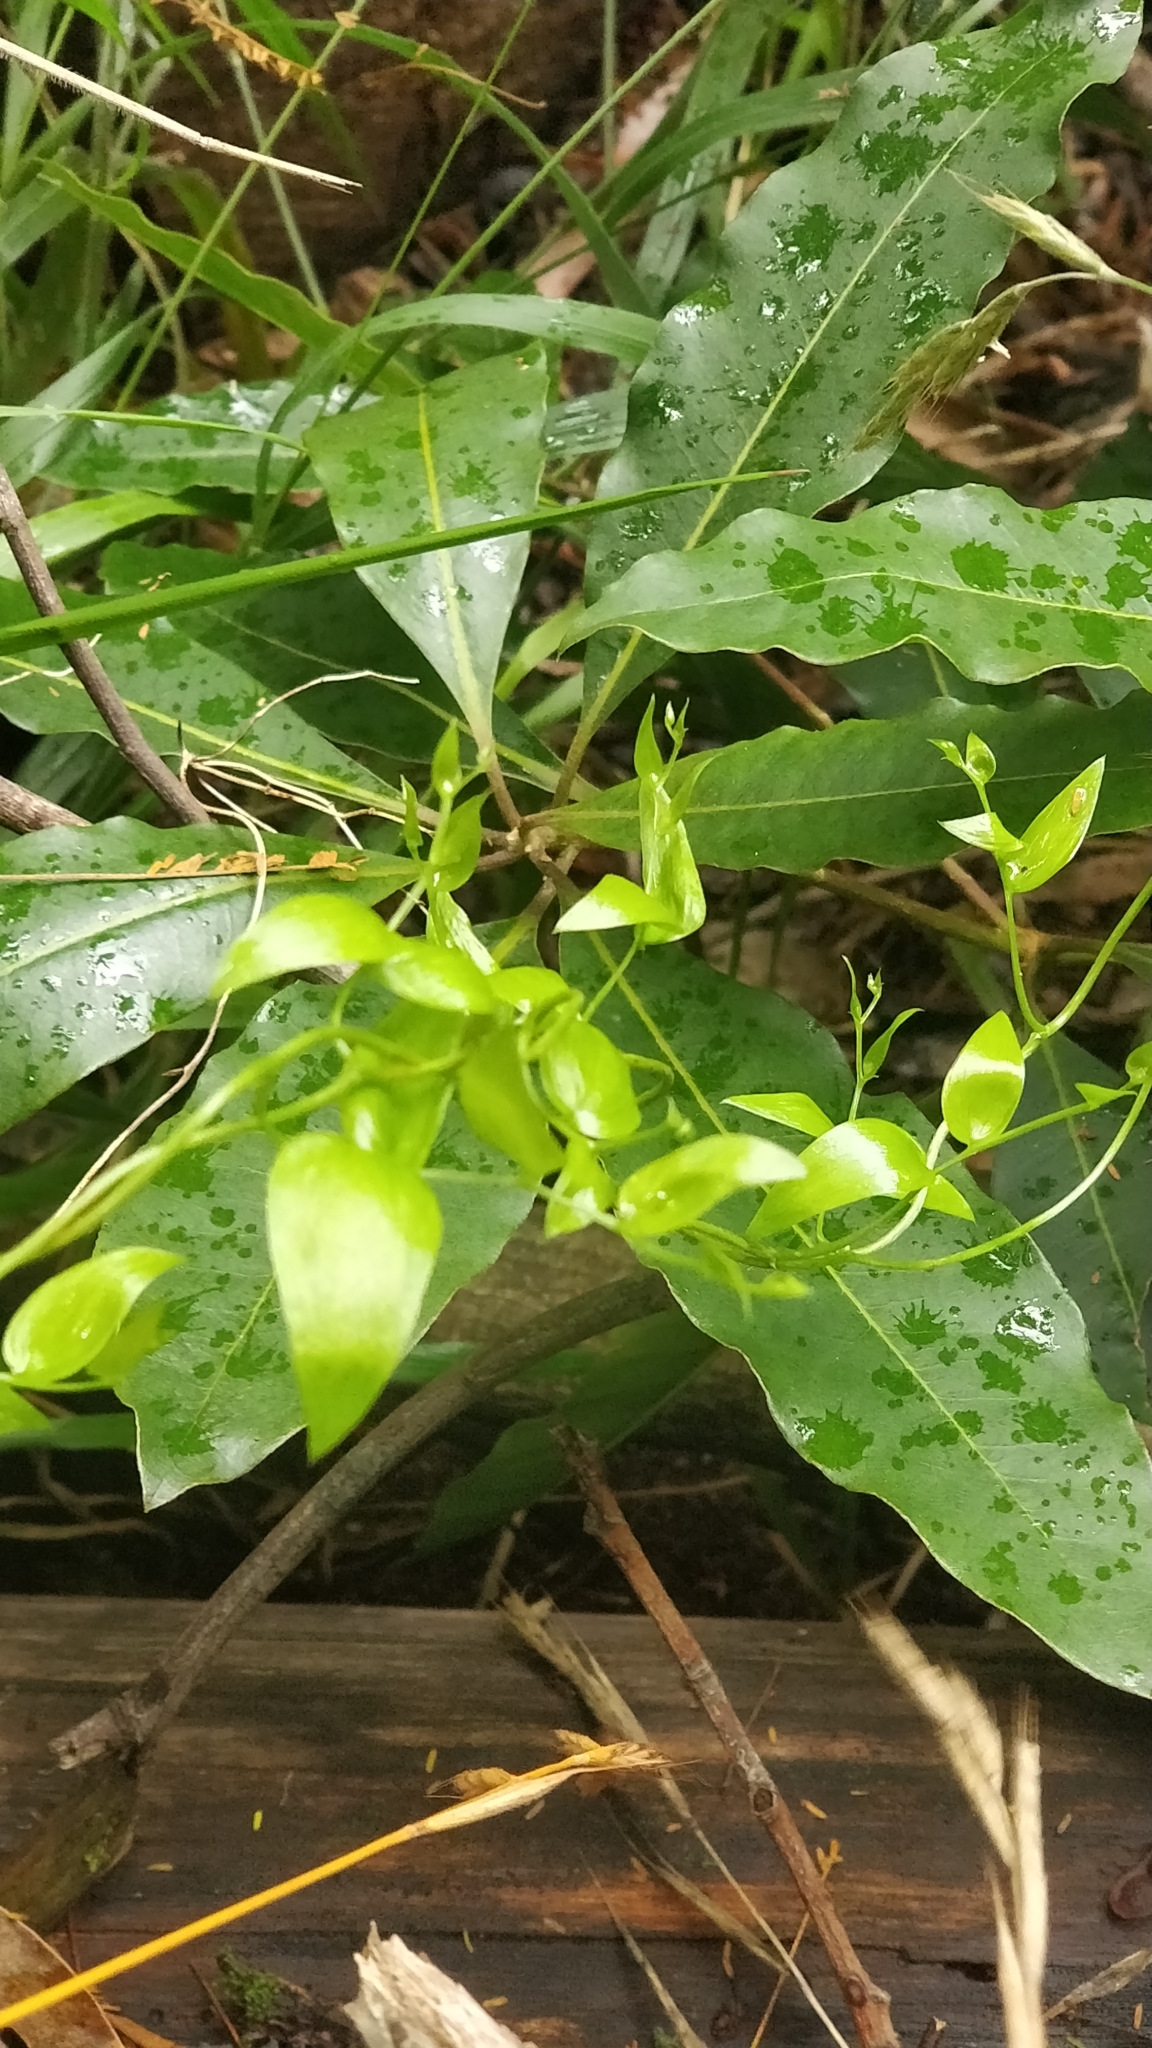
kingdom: Plantae
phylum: Tracheophyta
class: Liliopsida
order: Asparagales
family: Asparagaceae
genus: Asparagus
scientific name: Asparagus asparagoides
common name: African asparagus fern
